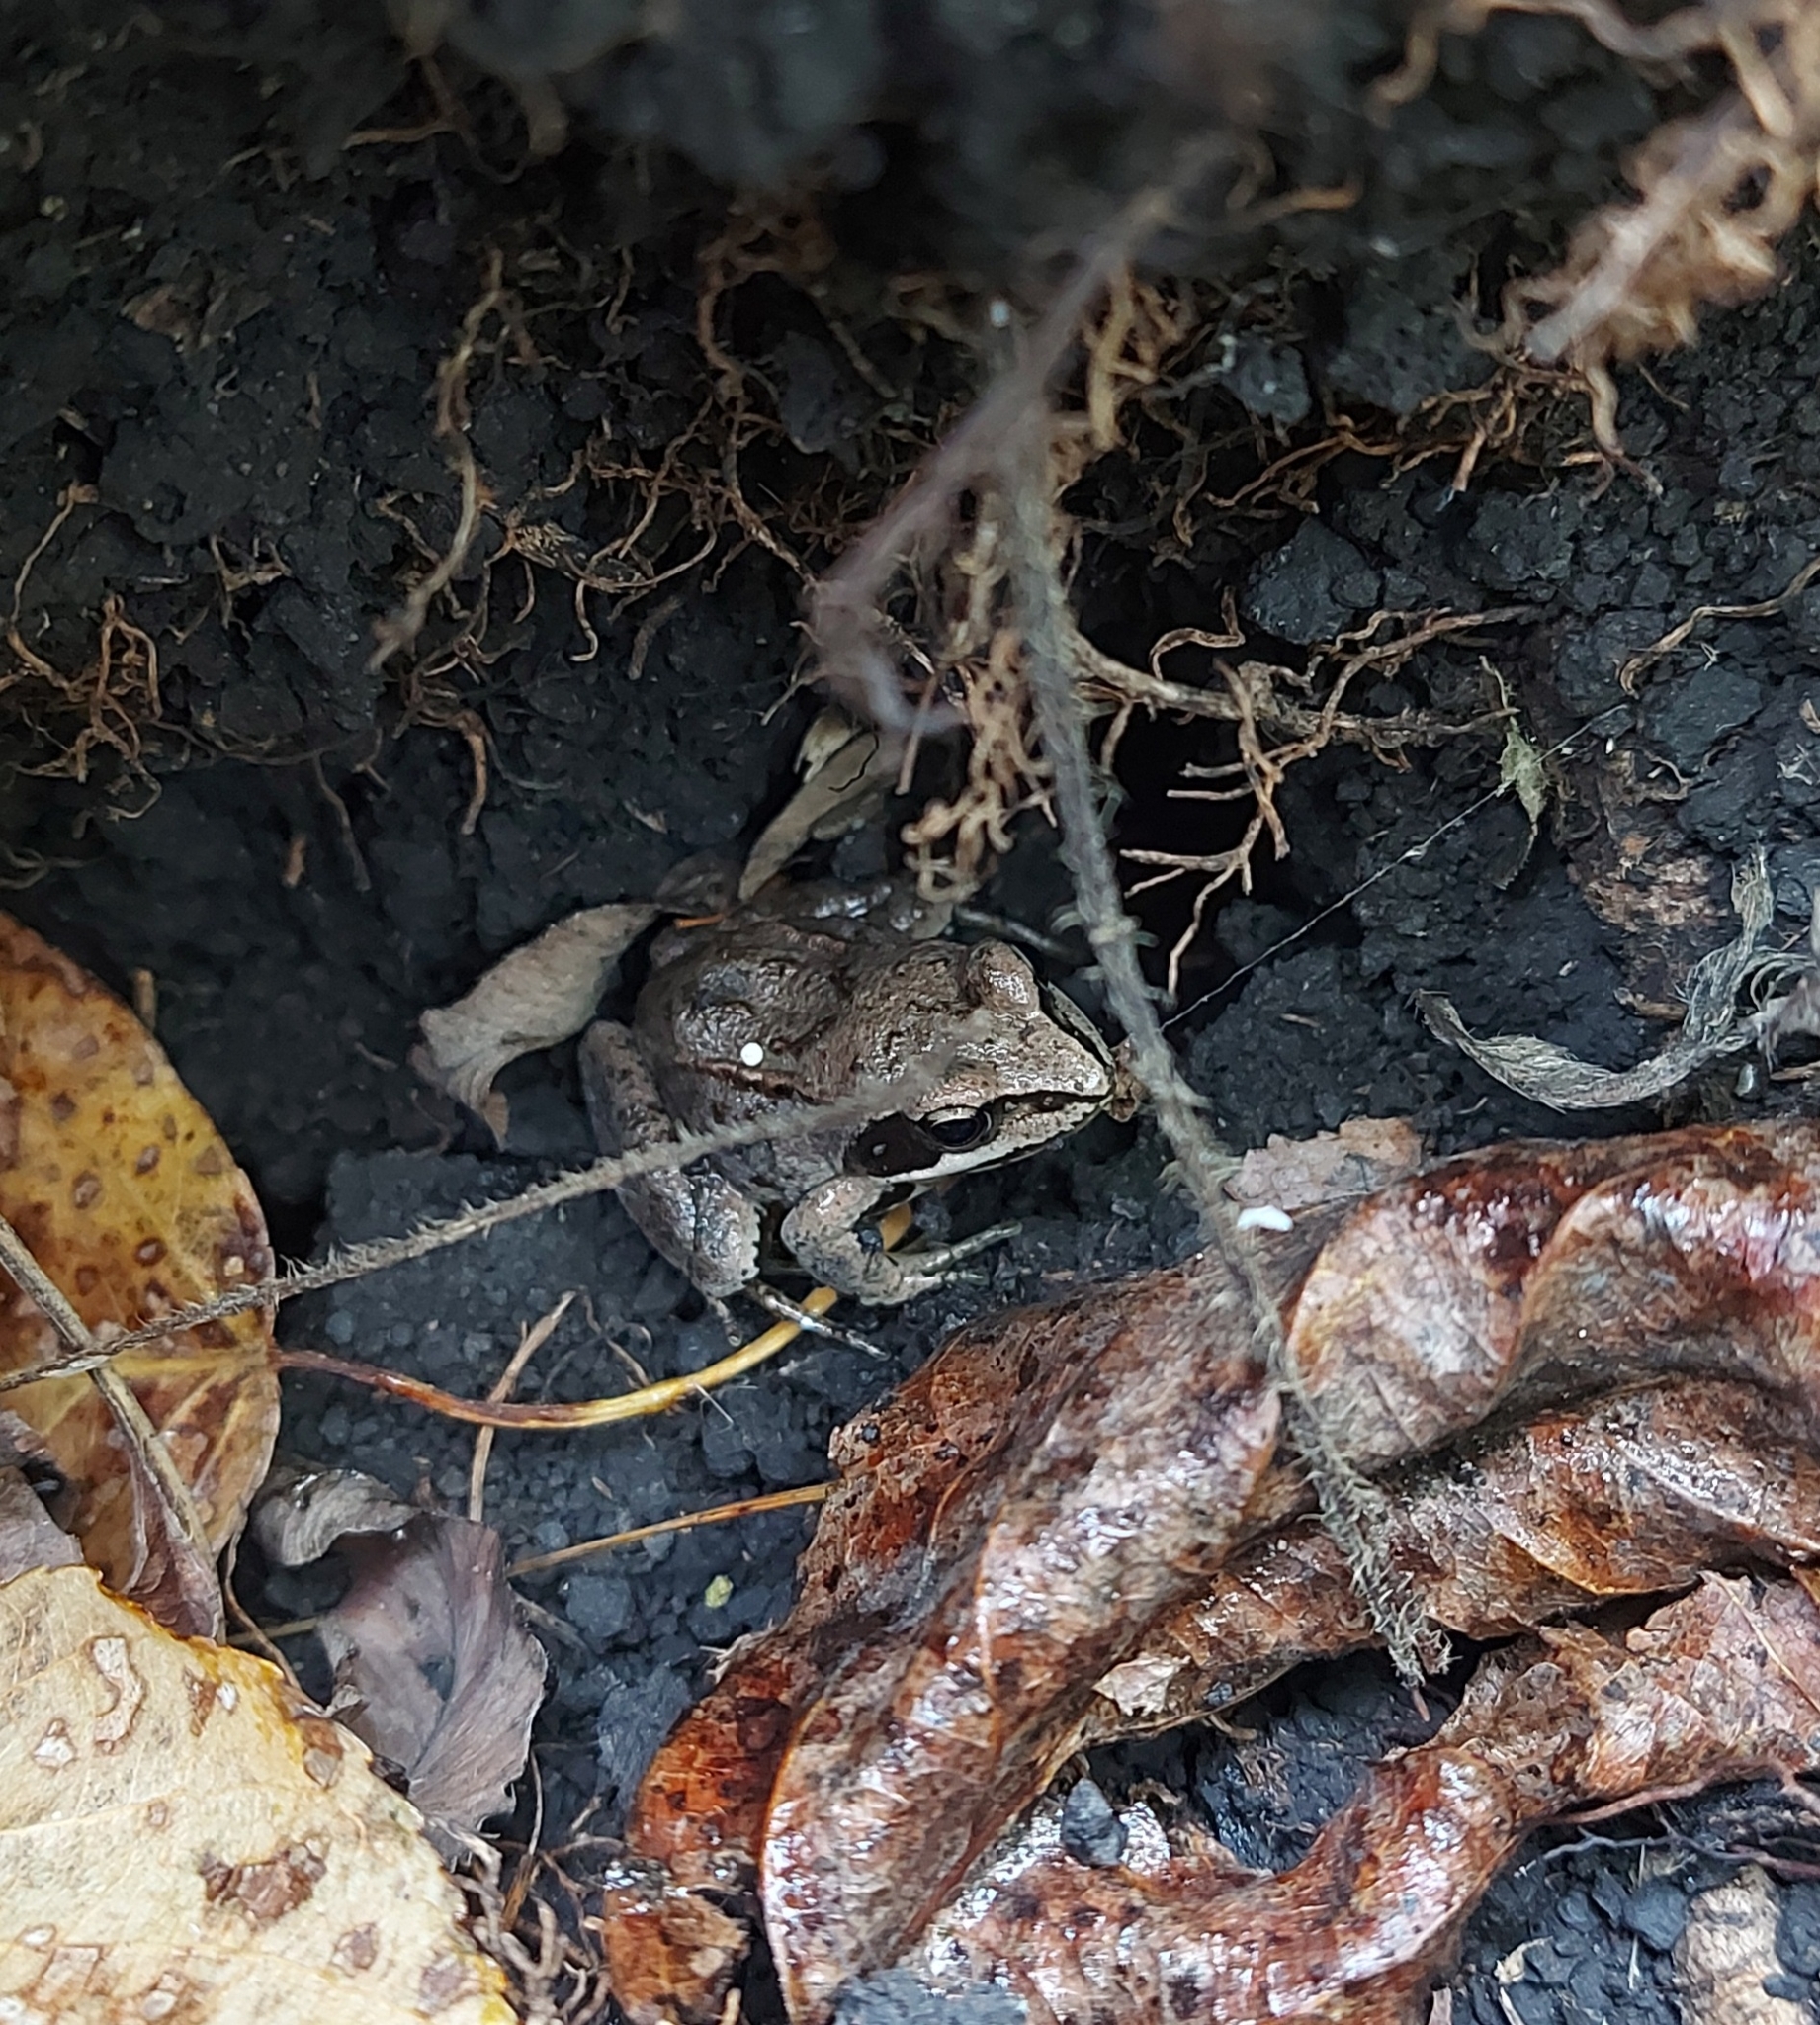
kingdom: Animalia
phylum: Chordata
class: Amphibia
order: Anura
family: Ranidae
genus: Rana
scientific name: Rana arvalis
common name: Moor frog
